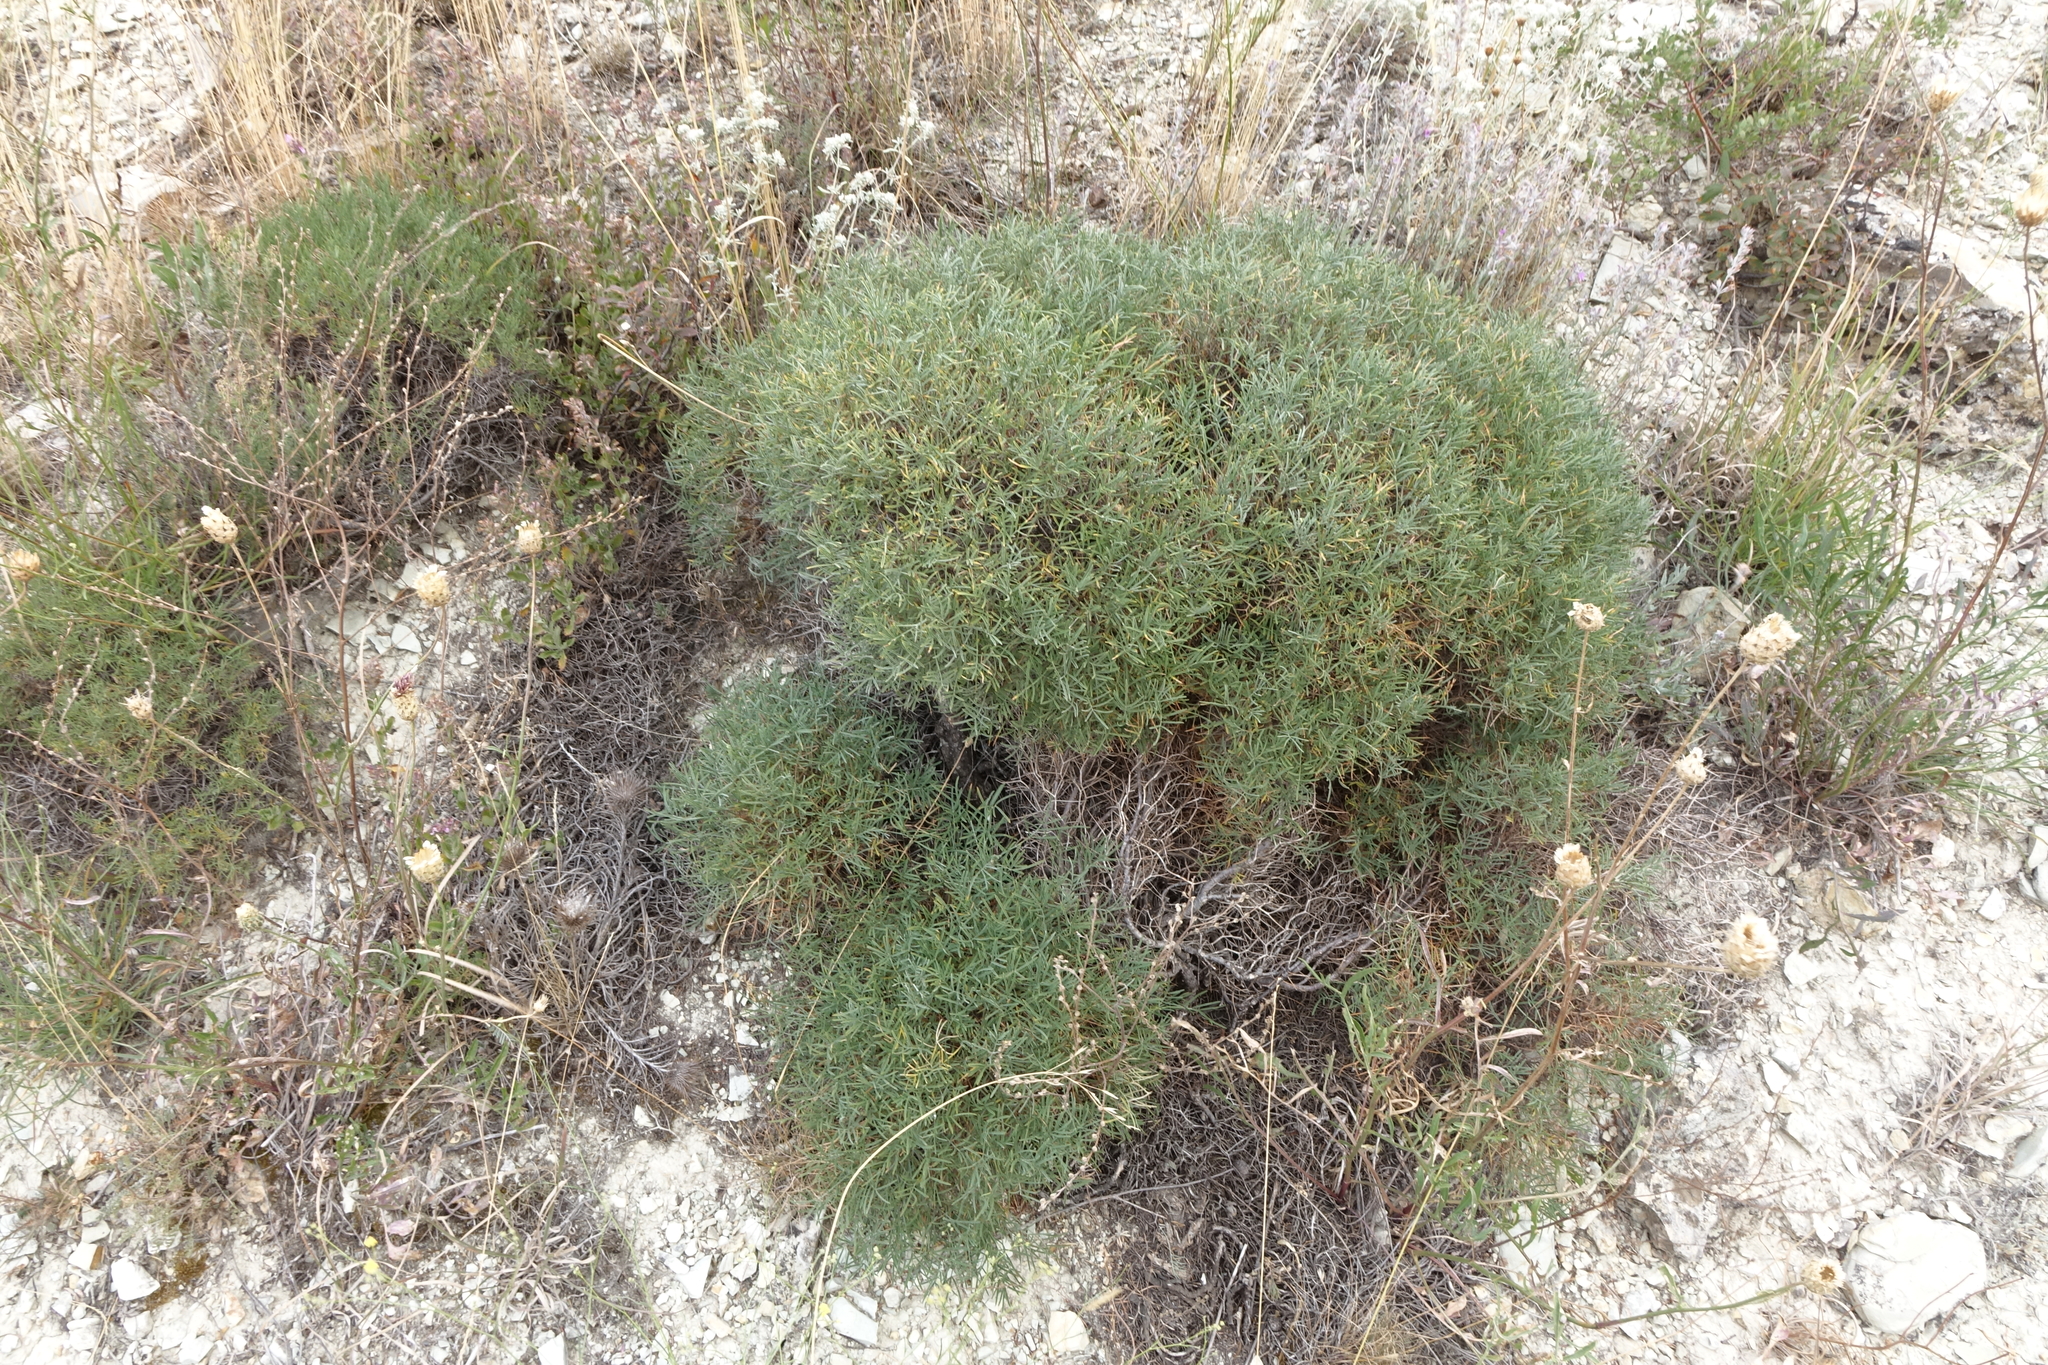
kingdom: Plantae
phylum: Tracheophyta
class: Magnoliopsida
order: Fabales
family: Fabaceae
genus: Onobrychis
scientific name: Onobrychis cornuta
